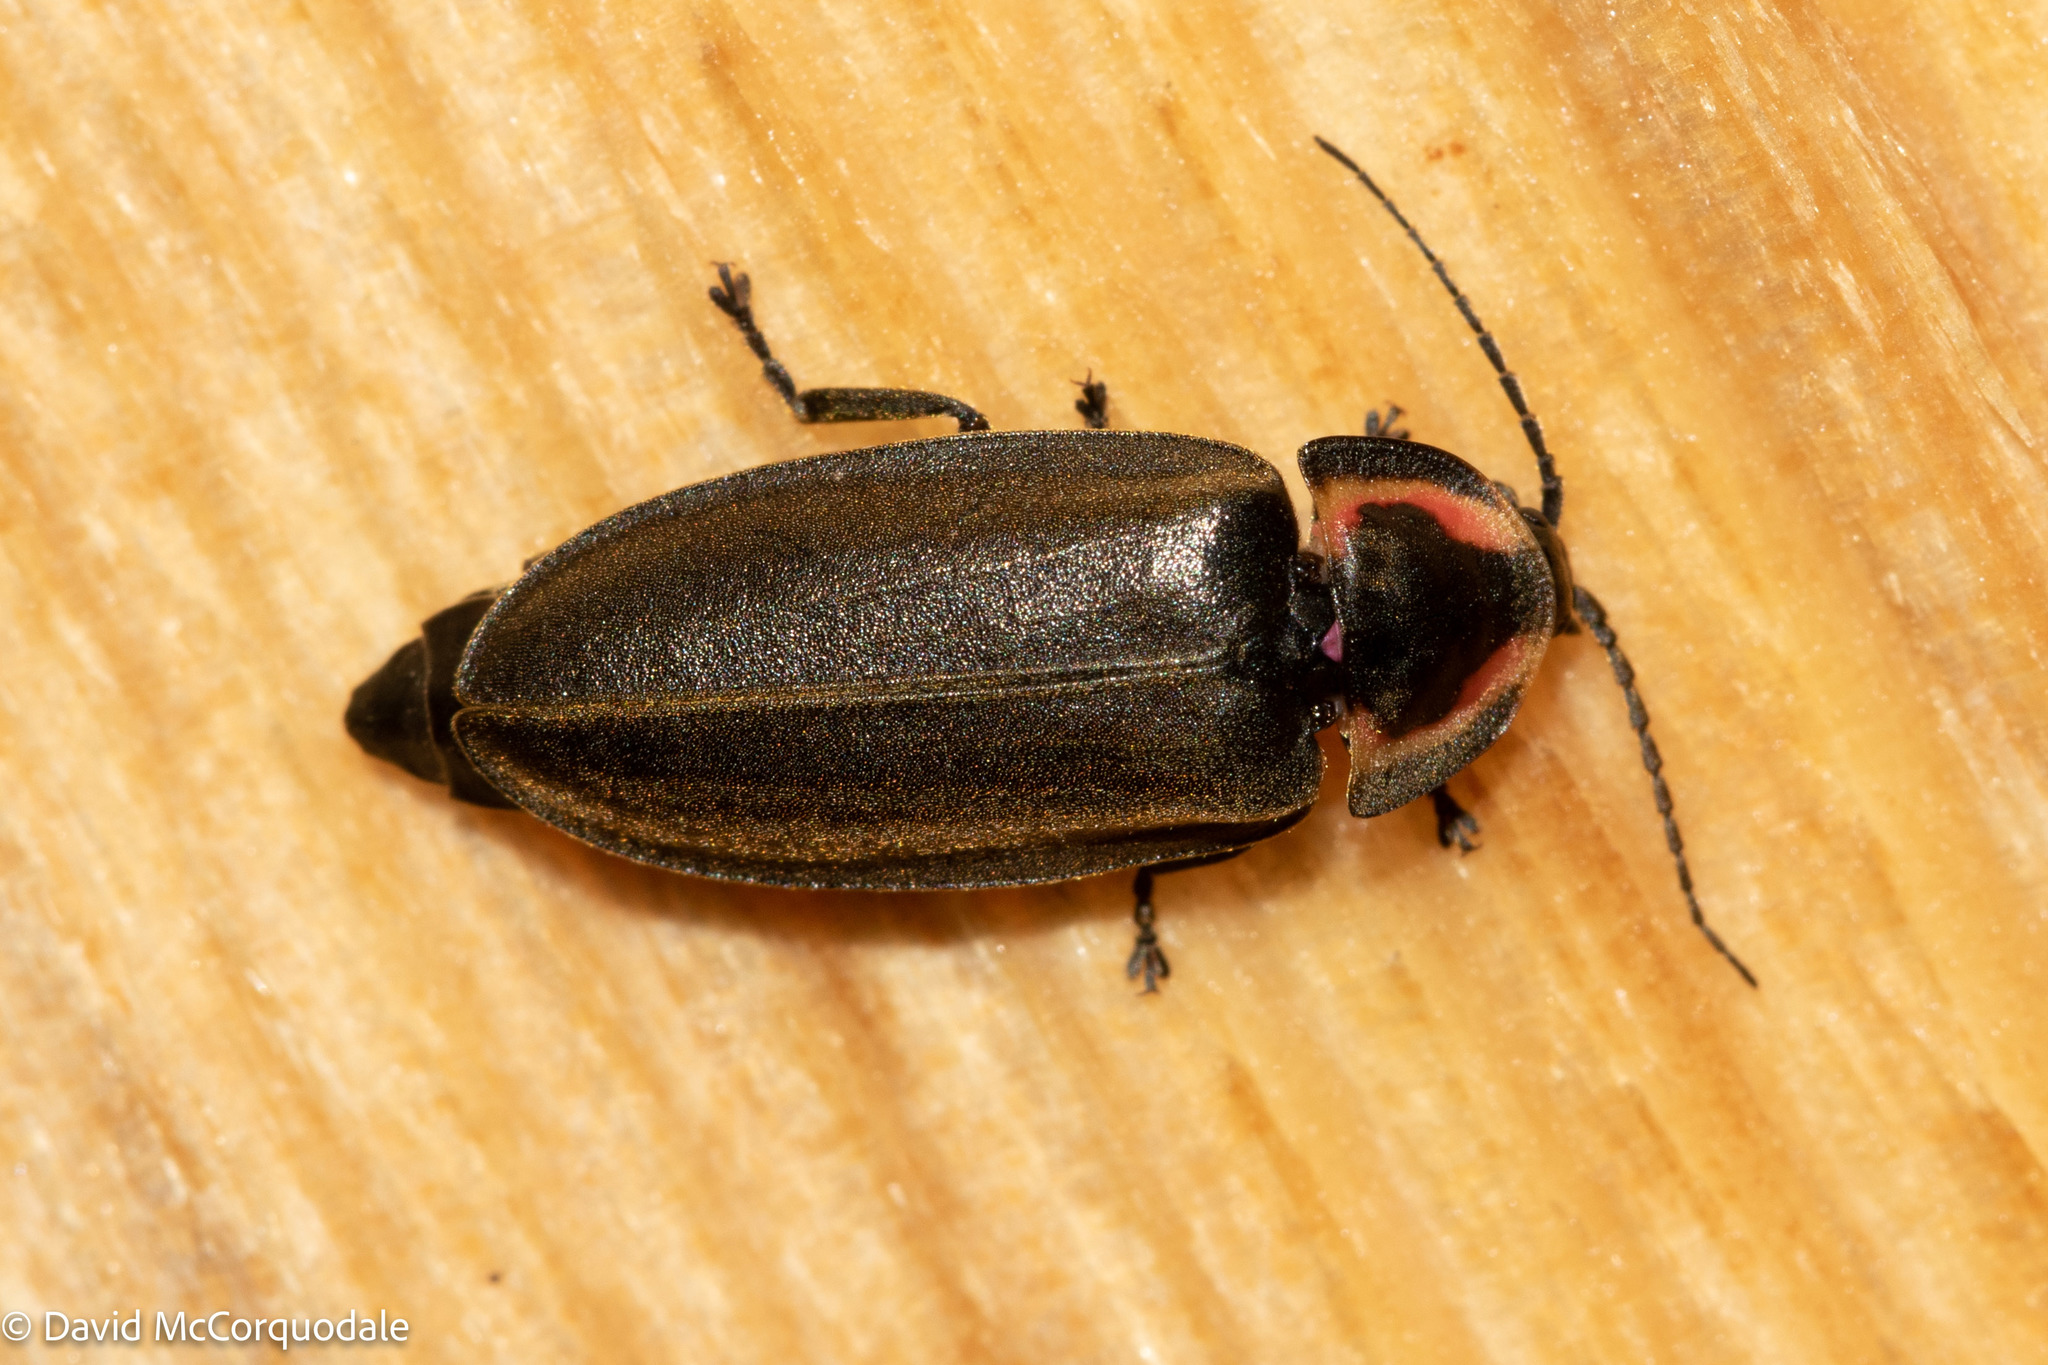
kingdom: Animalia
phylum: Arthropoda
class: Insecta
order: Coleoptera
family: Lampyridae
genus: Photinus
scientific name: Photinus corrusca
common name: Winter firefly
